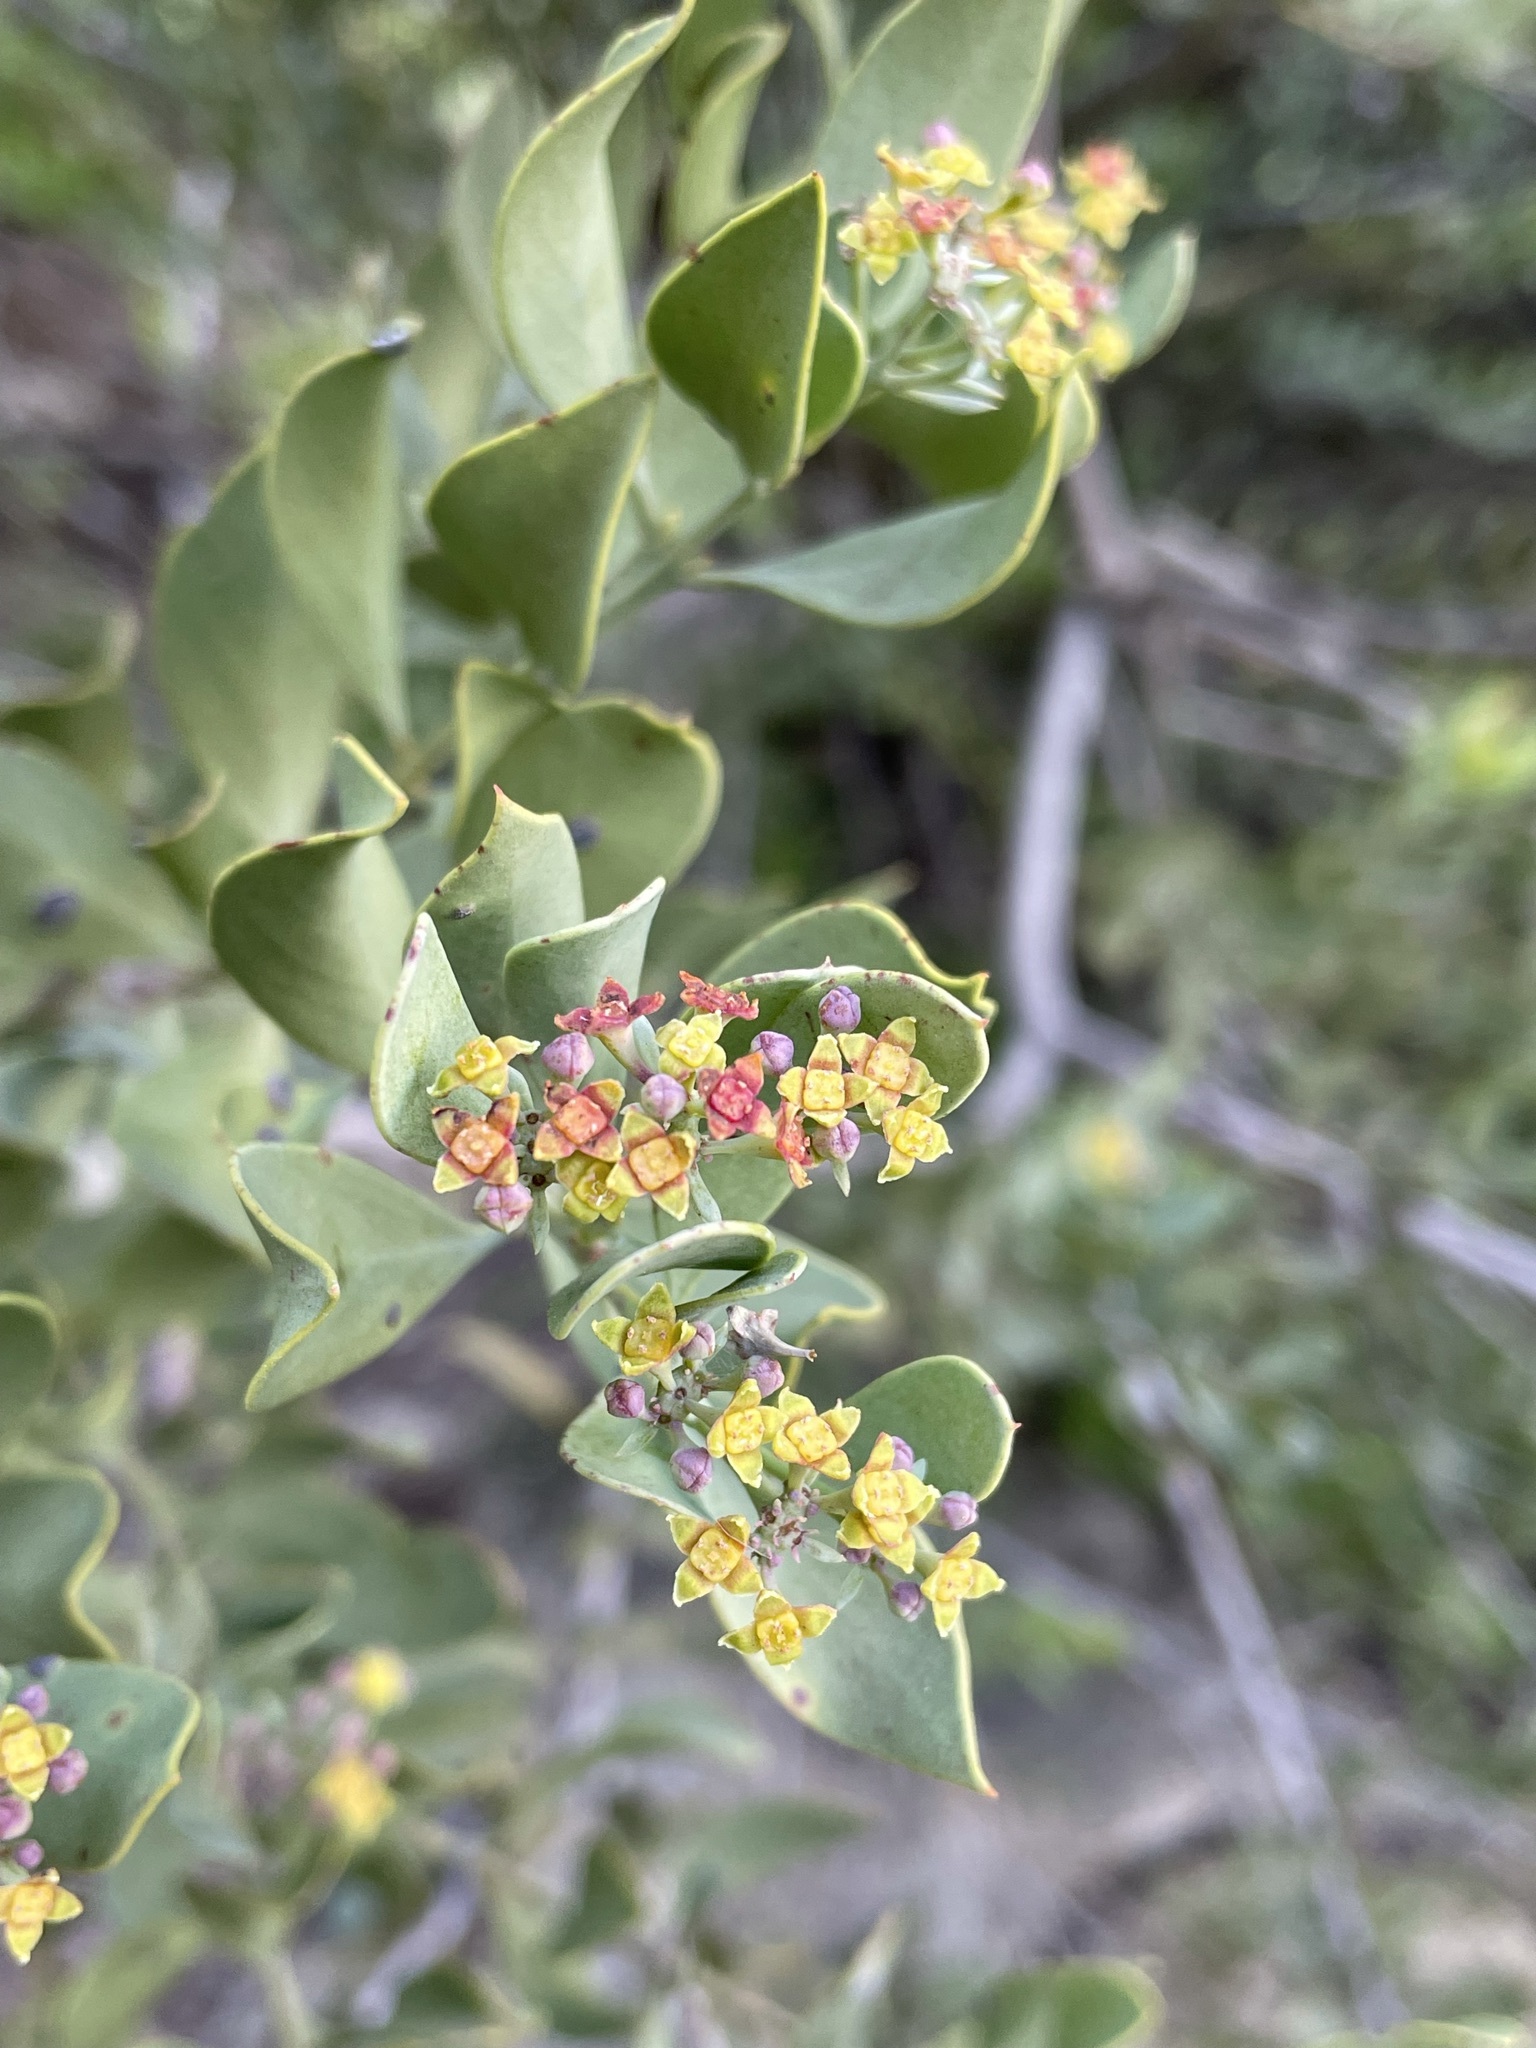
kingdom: Plantae
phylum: Tracheophyta
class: Magnoliopsida
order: Santalales
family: Santalaceae
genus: Osyris
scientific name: Osyris compressa
